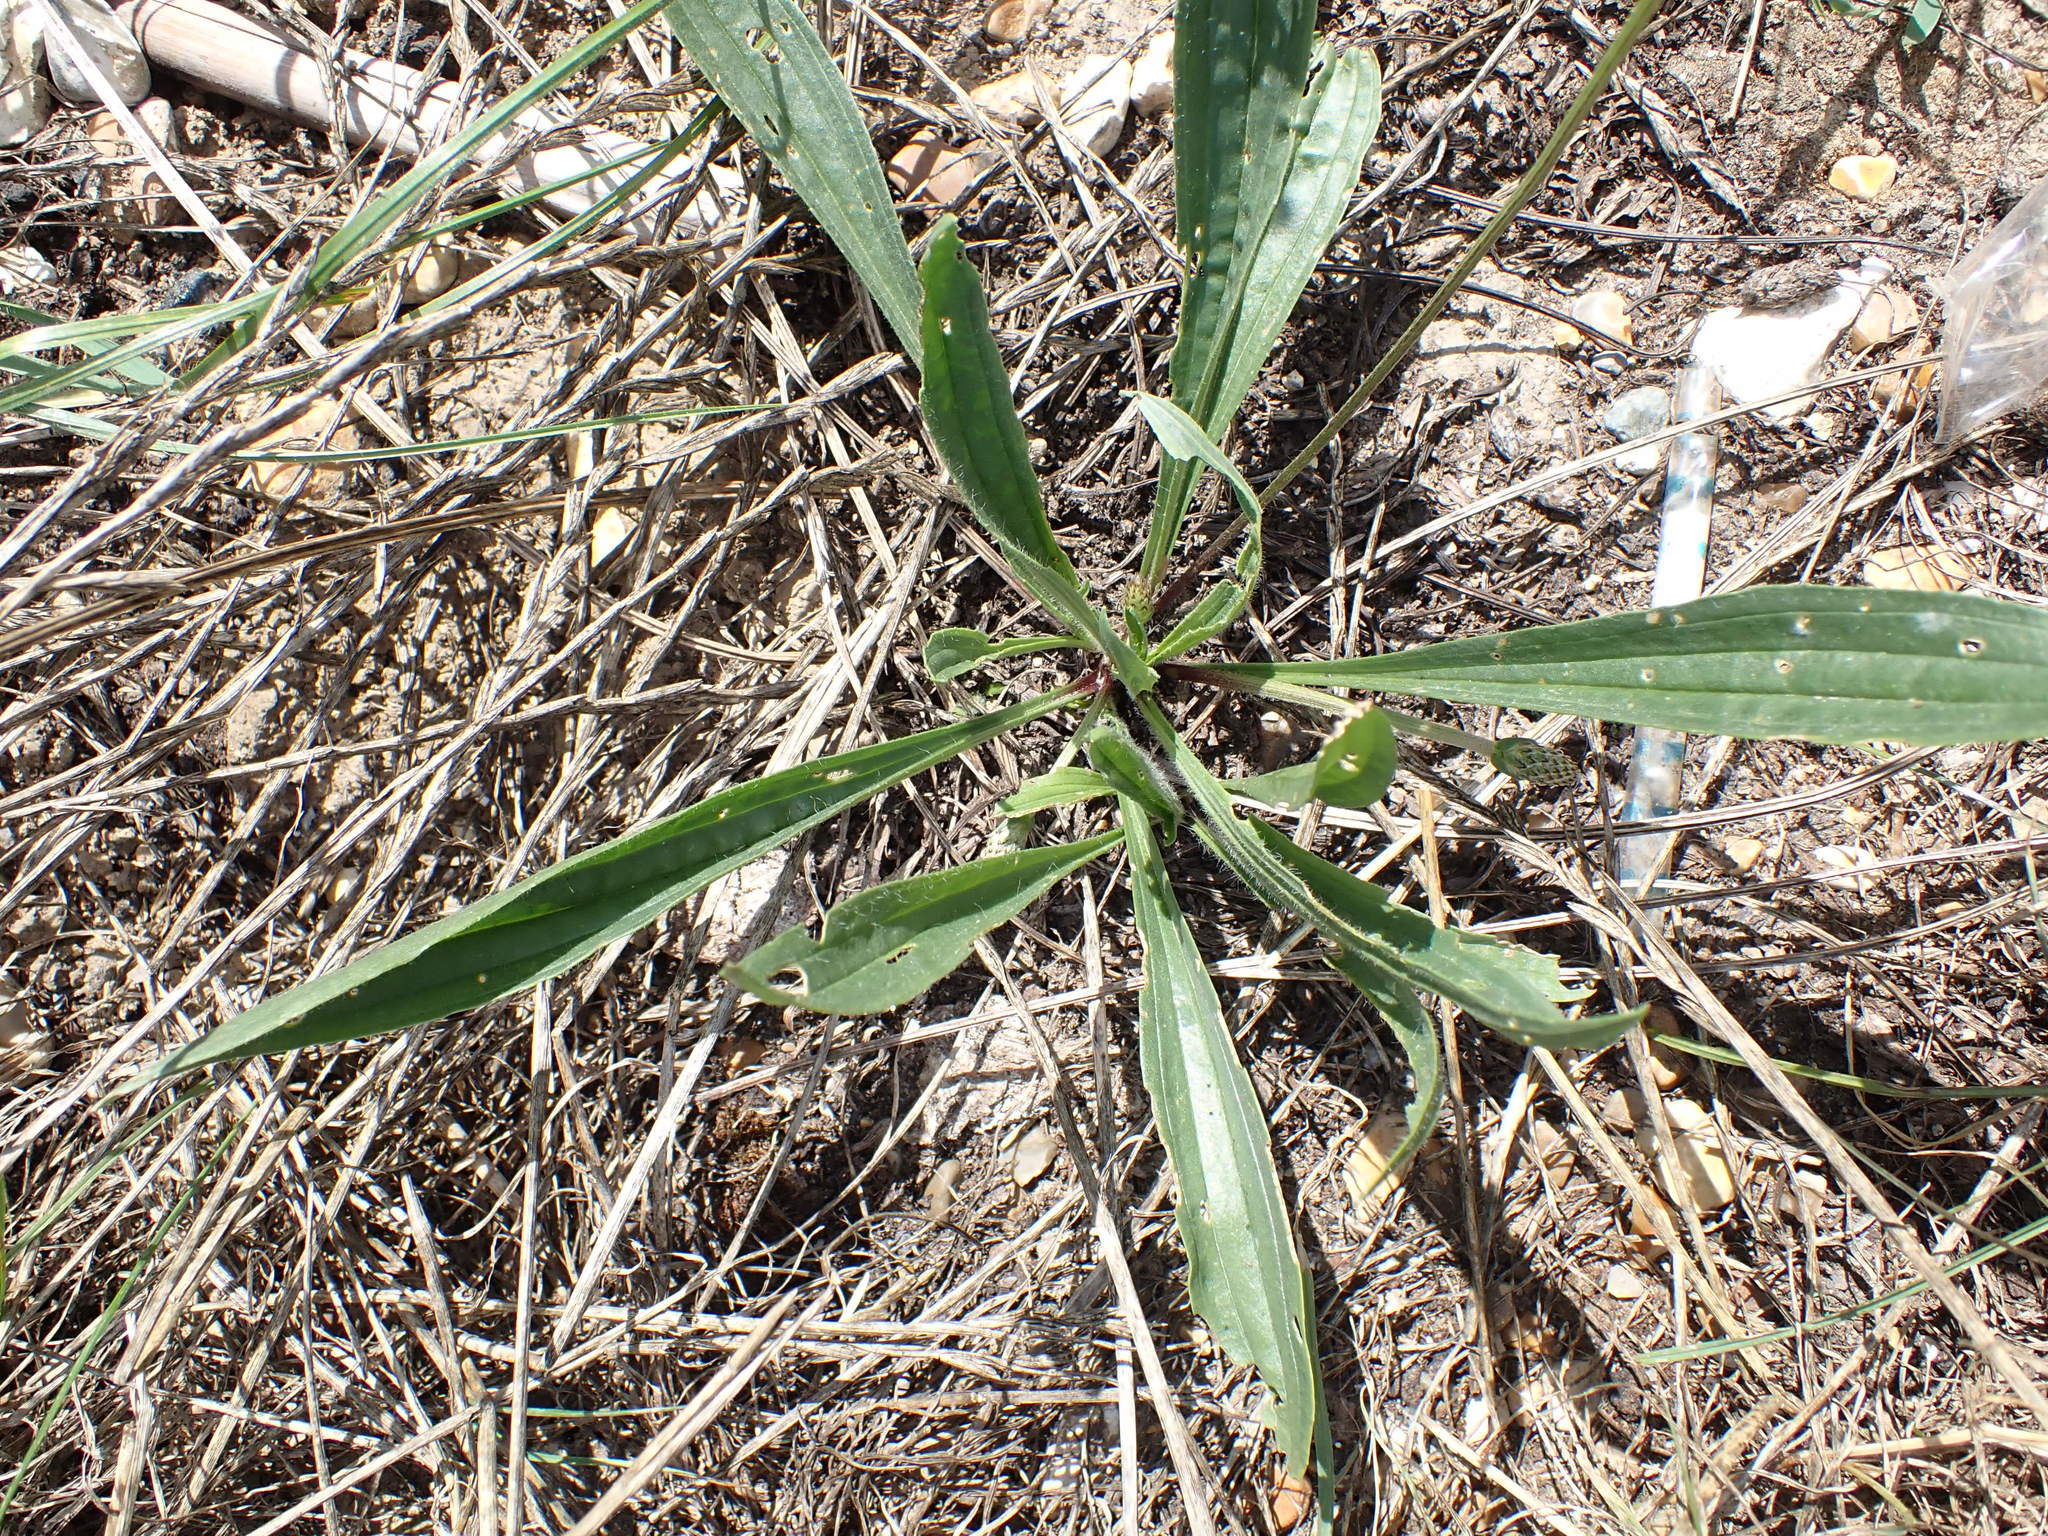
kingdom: Plantae
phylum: Tracheophyta
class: Magnoliopsida
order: Lamiales
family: Plantaginaceae
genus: Plantago
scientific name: Plantago lanceolata
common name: Ribwort plantain
